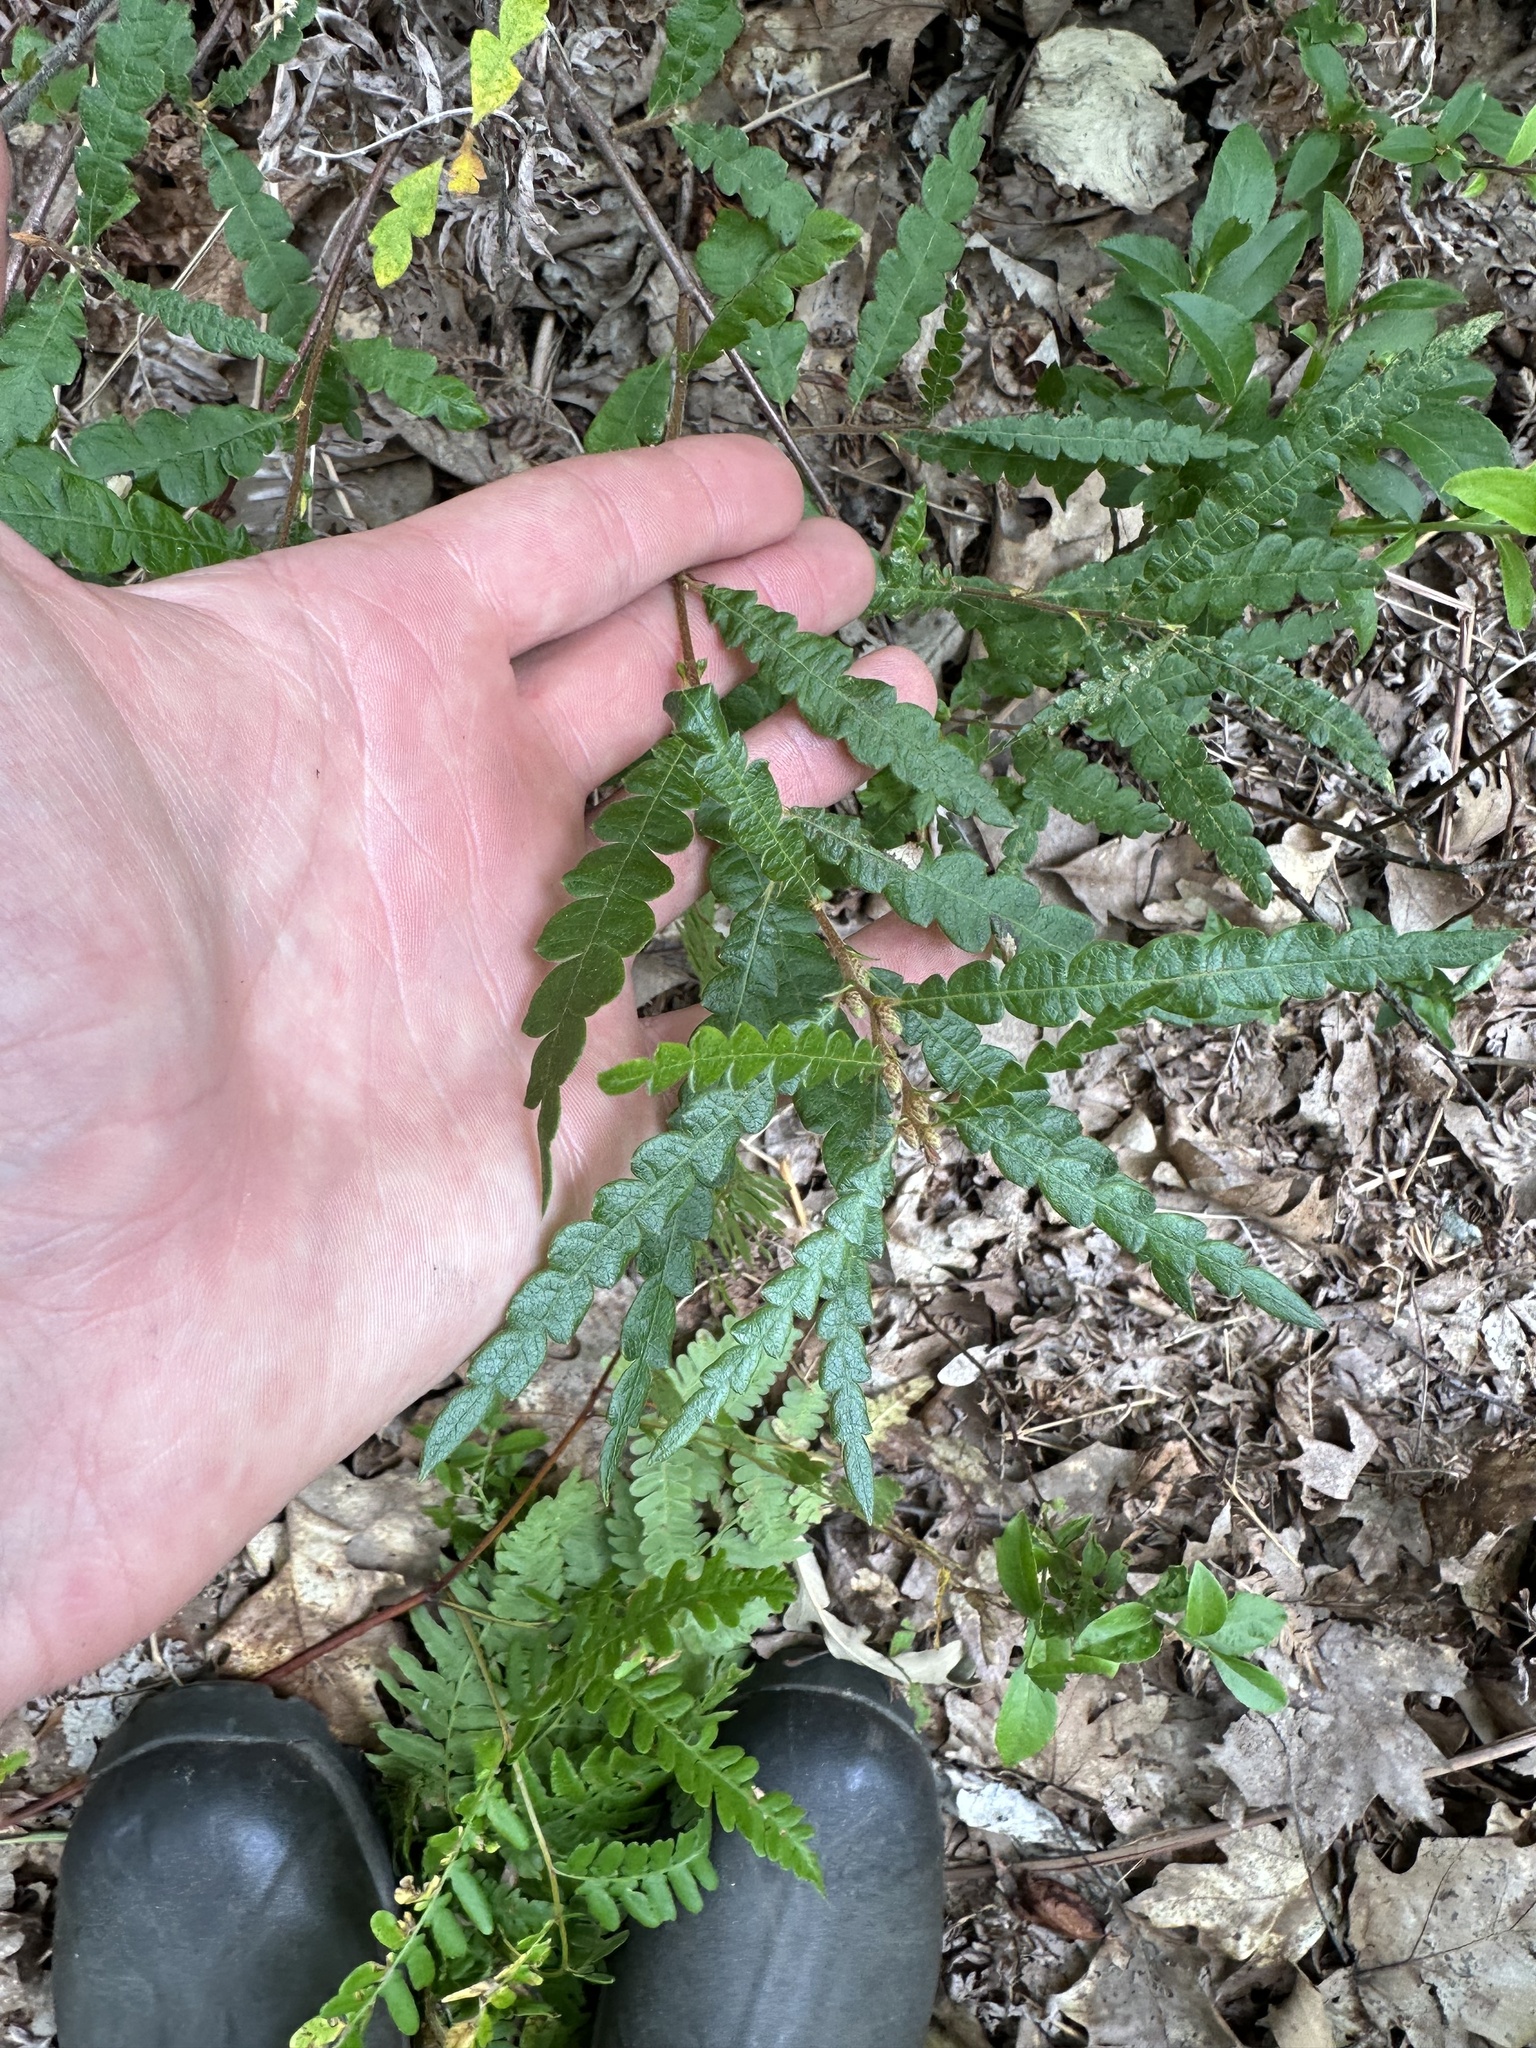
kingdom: Plantae
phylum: Tracheophyta
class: Magnoliopsida
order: Fagales
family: Myricaceae
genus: Comptonia
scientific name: Comptonia peregrina
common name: Sweet-fern
